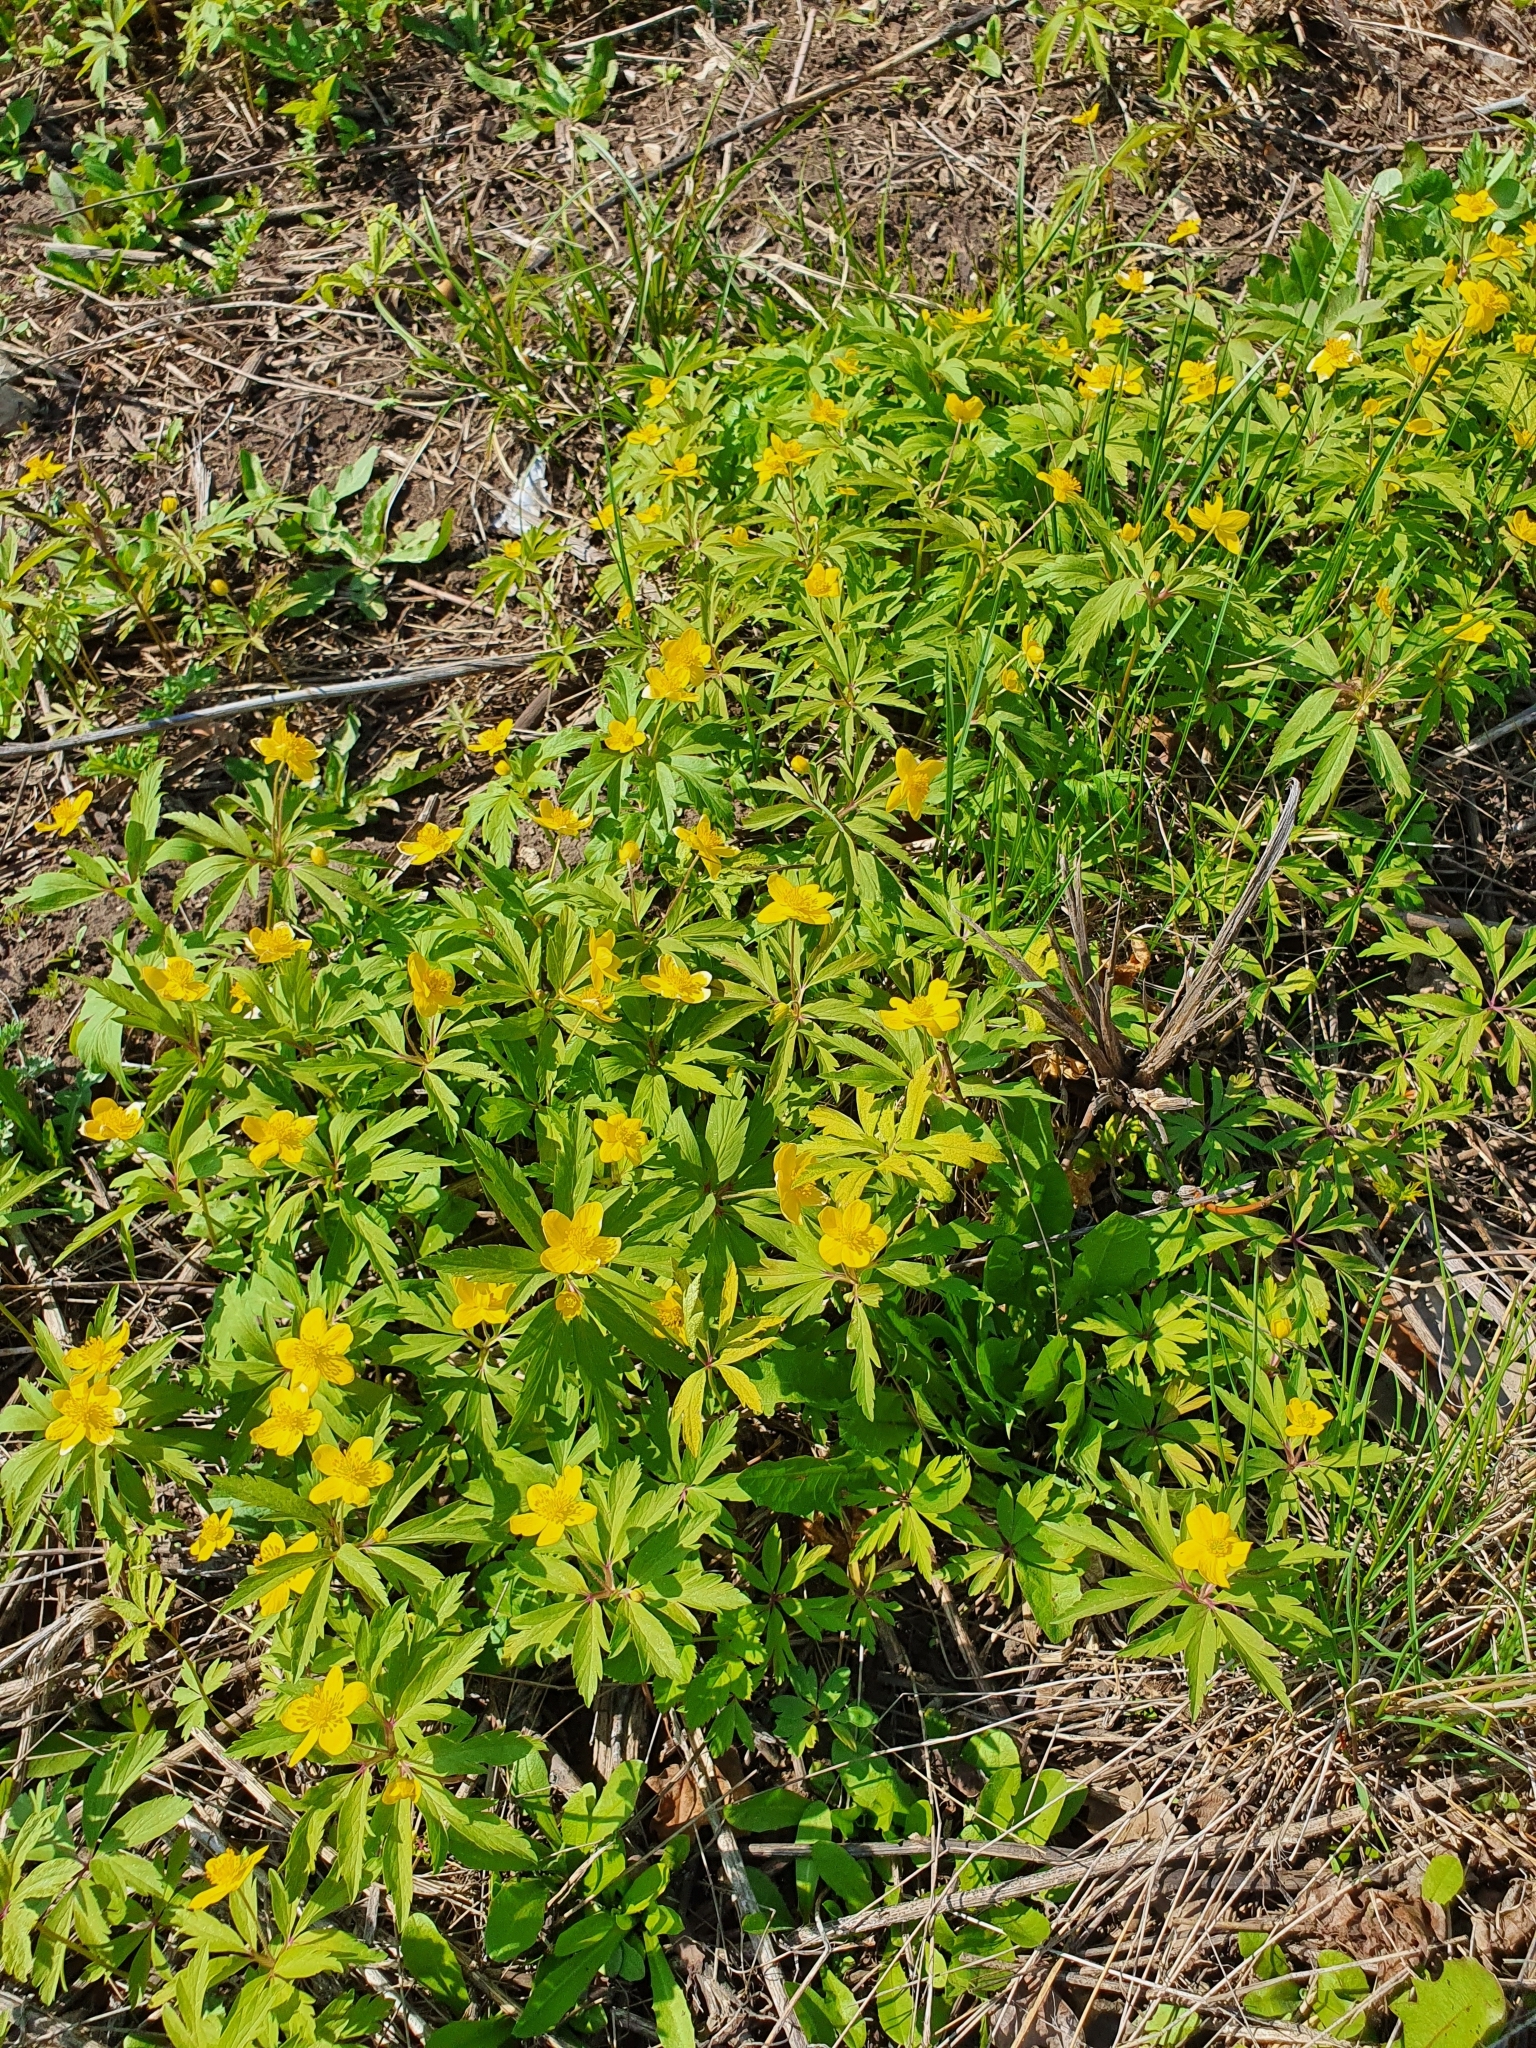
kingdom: Plantae
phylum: Tracheophyta
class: Magnoliopsida
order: Ranunculales
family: Ranunculaceae
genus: Anemone
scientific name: Anemone ranunculoides
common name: Yellow anemone
